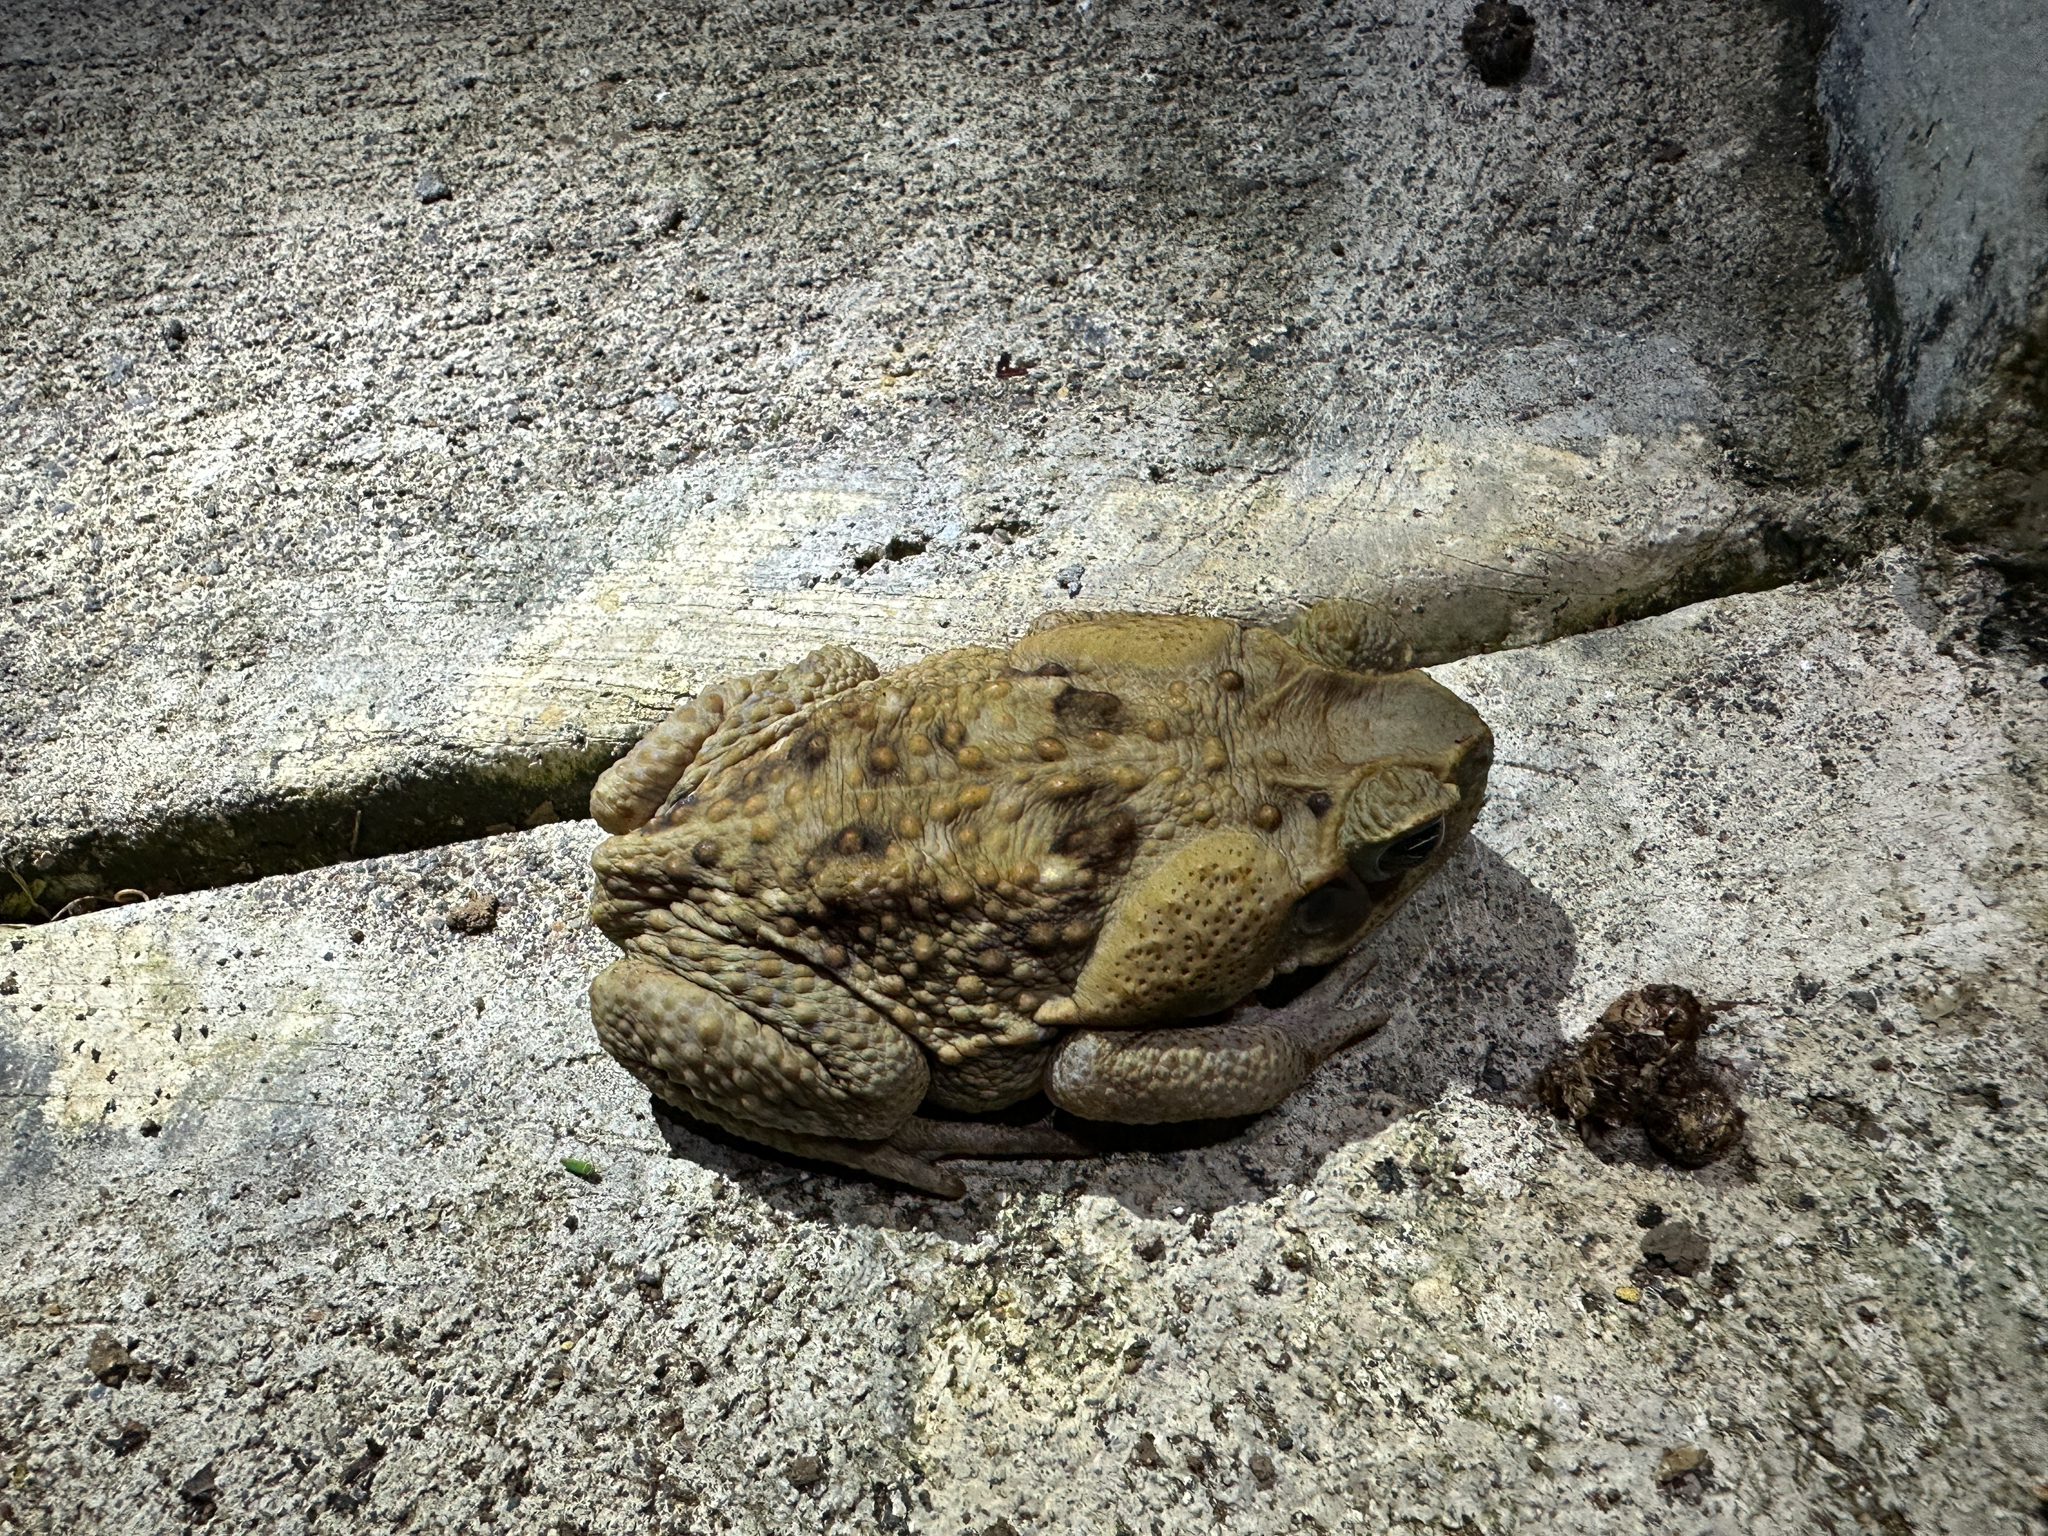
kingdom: Animalia
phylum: Chordata
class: Amphibia
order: Anura
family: Bufonidae
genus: Rhinella
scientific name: Rhinella horribilis
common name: Mesoamerican cane toad
